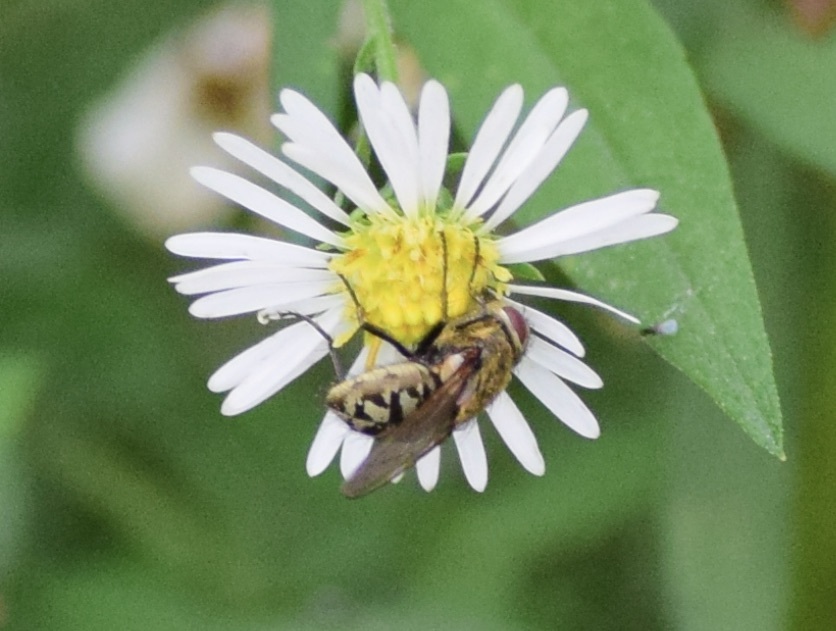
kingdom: Animalia
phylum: Arthropoda
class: Insecta
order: Diptera
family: Polleniidae
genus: Pollenia
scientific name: Pollenia
